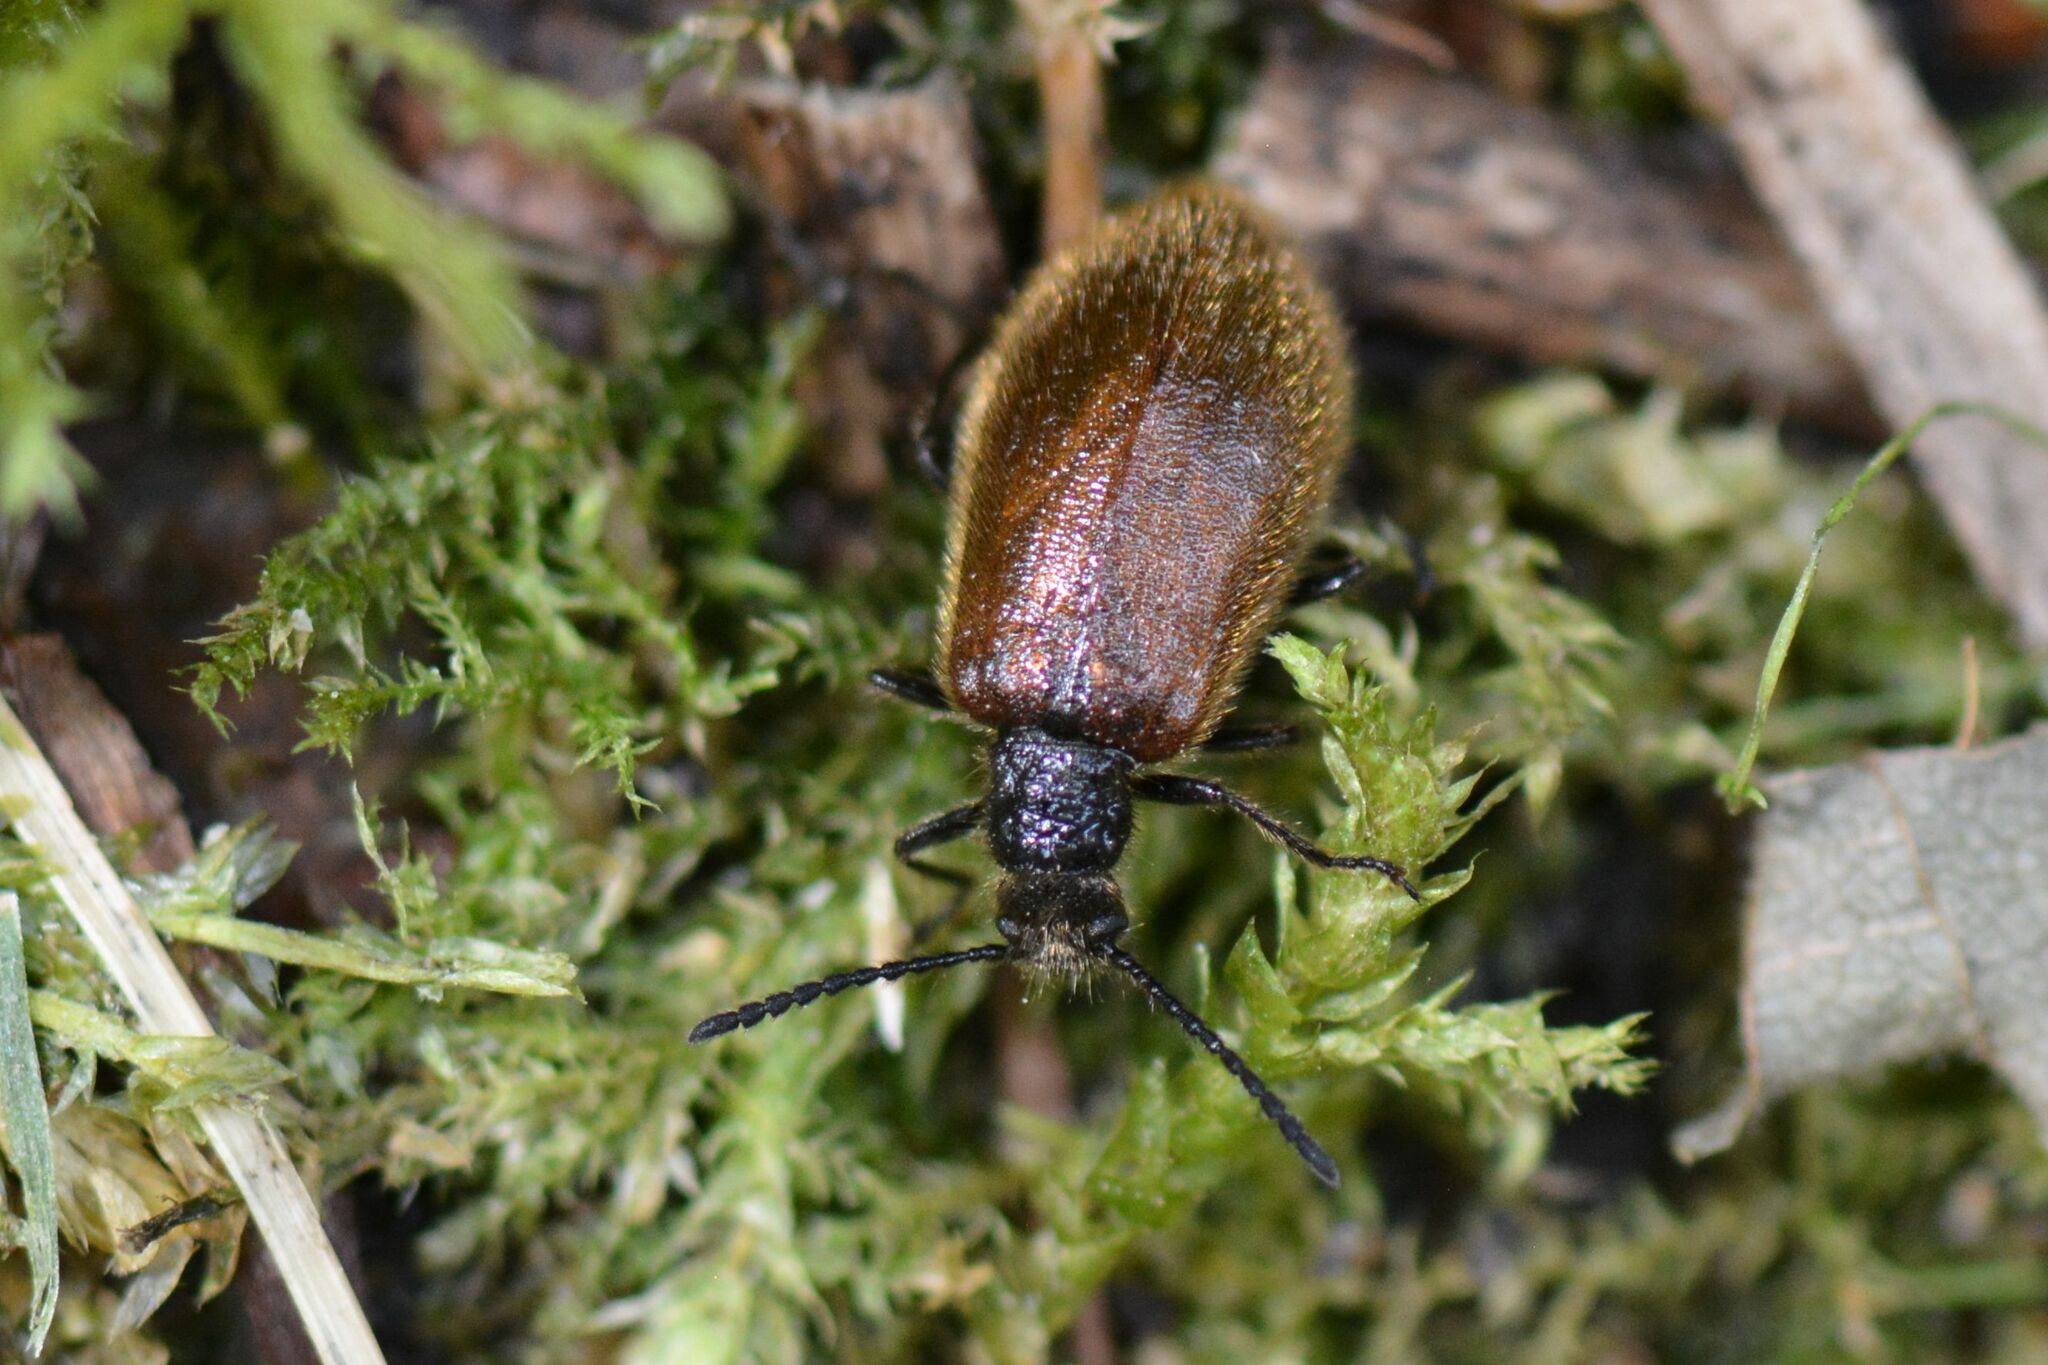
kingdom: Animalia
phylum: Arthropoda
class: Insecta
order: Coleoptera
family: Tenebrionidae
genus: Lagria
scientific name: Lagria hirta
